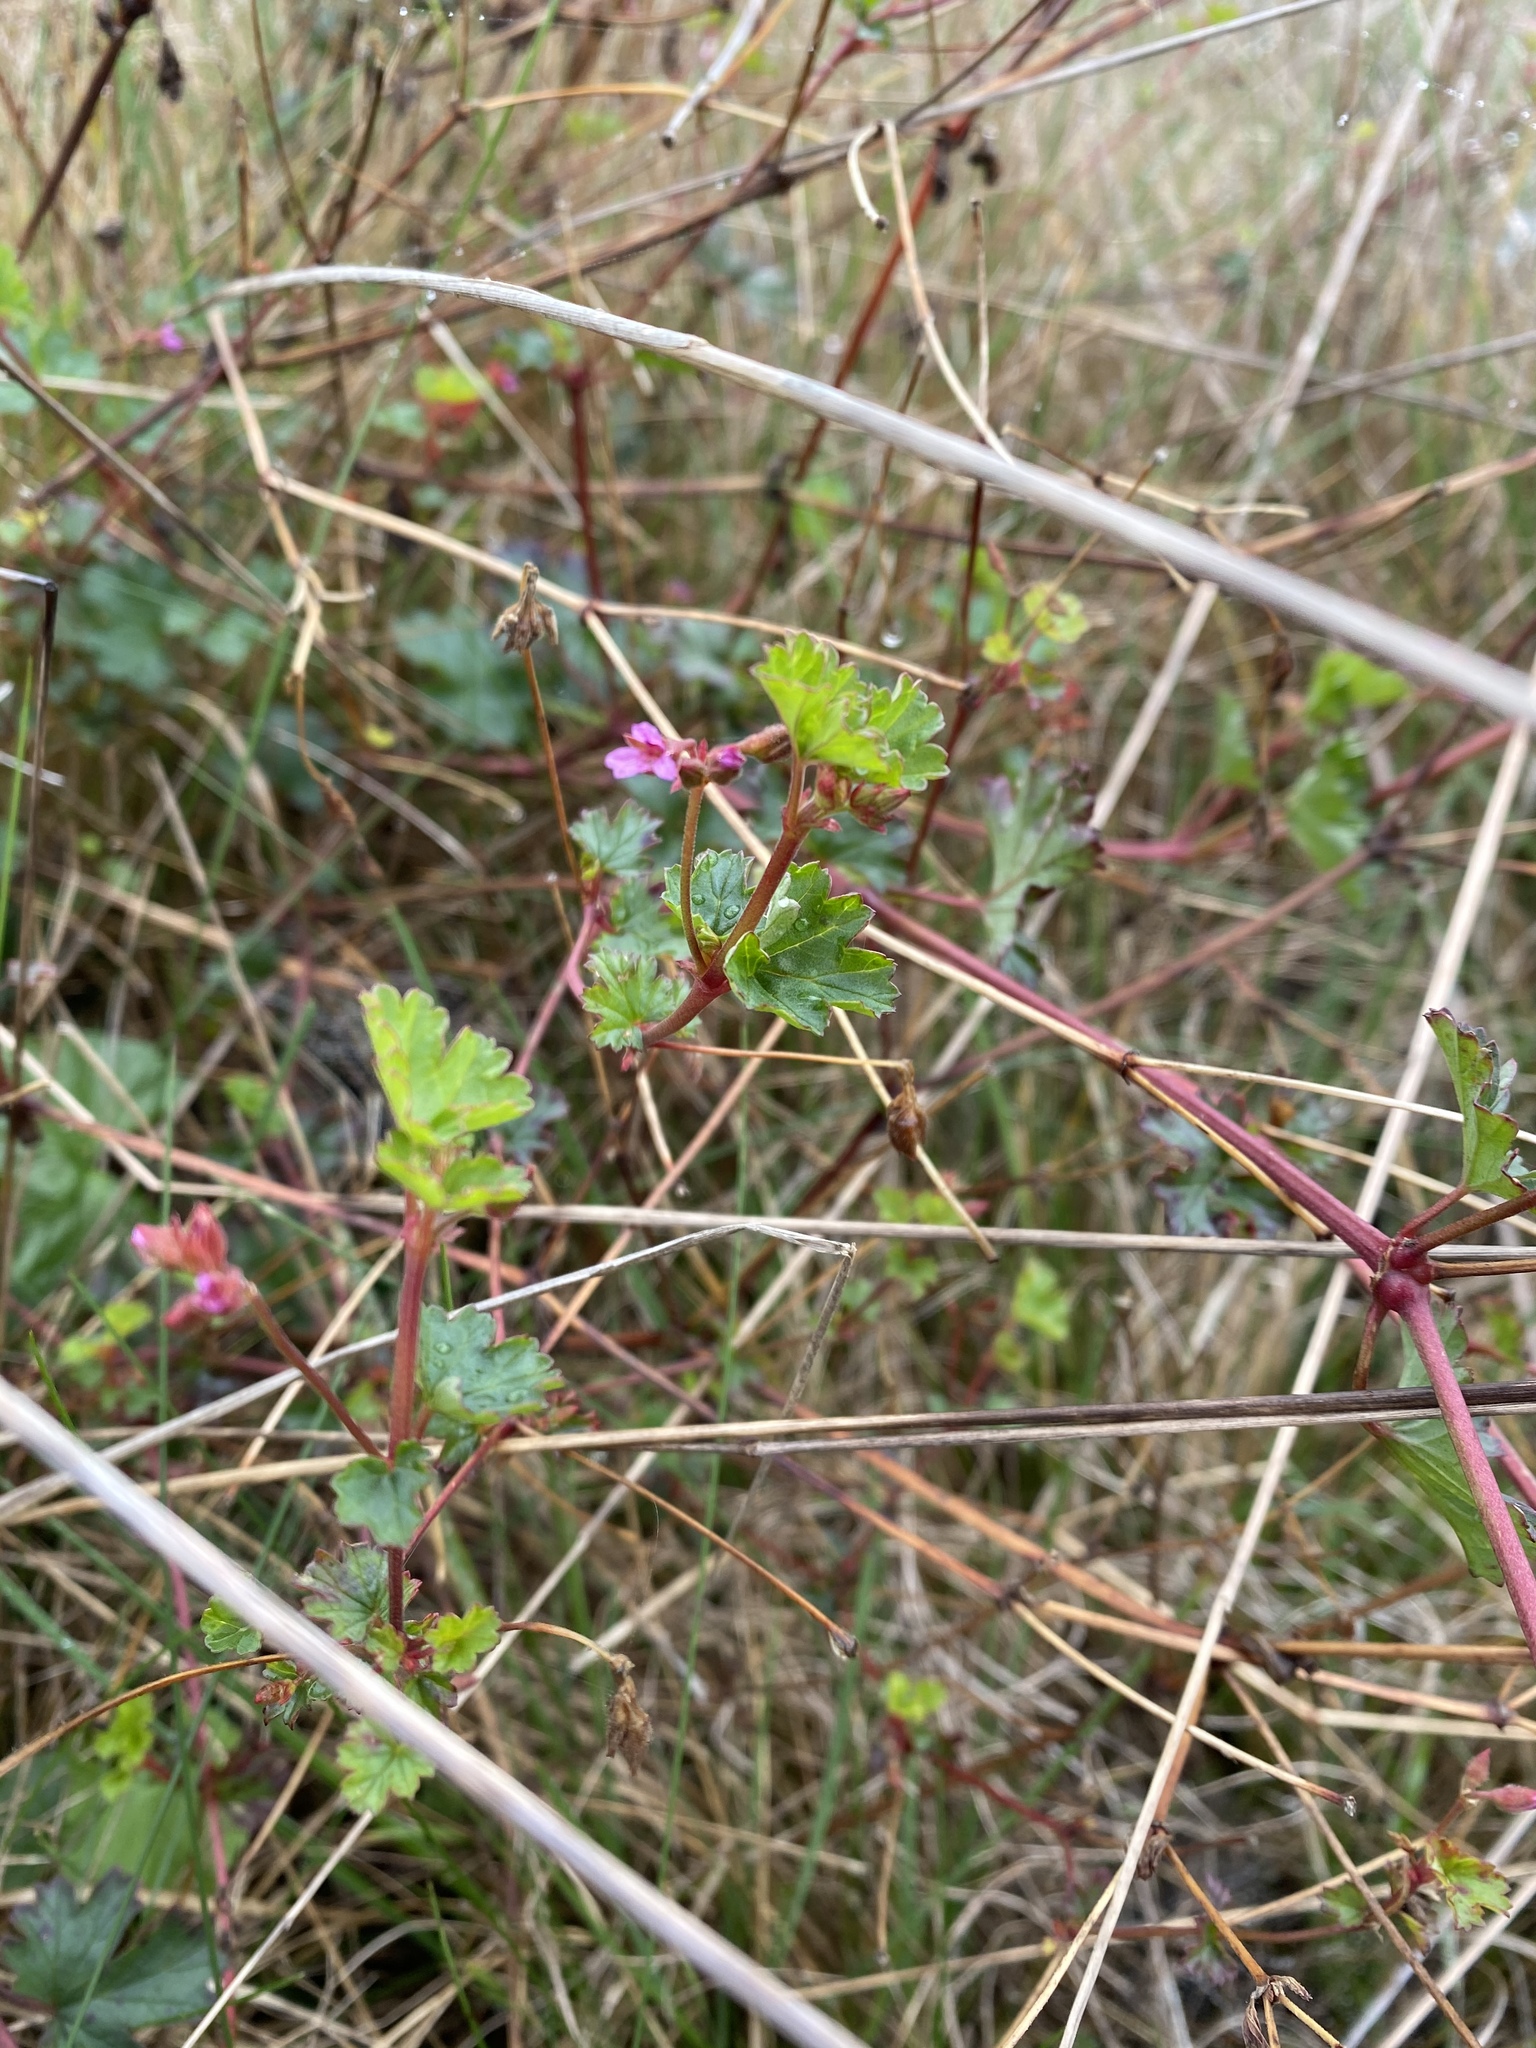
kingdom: Plantae
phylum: Tracheophyta
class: Magnoliopsida
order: Geraniales
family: Geraniaceae
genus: Pelargonium
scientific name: Pelargonium grossularioides
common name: Gooseberry geranium
